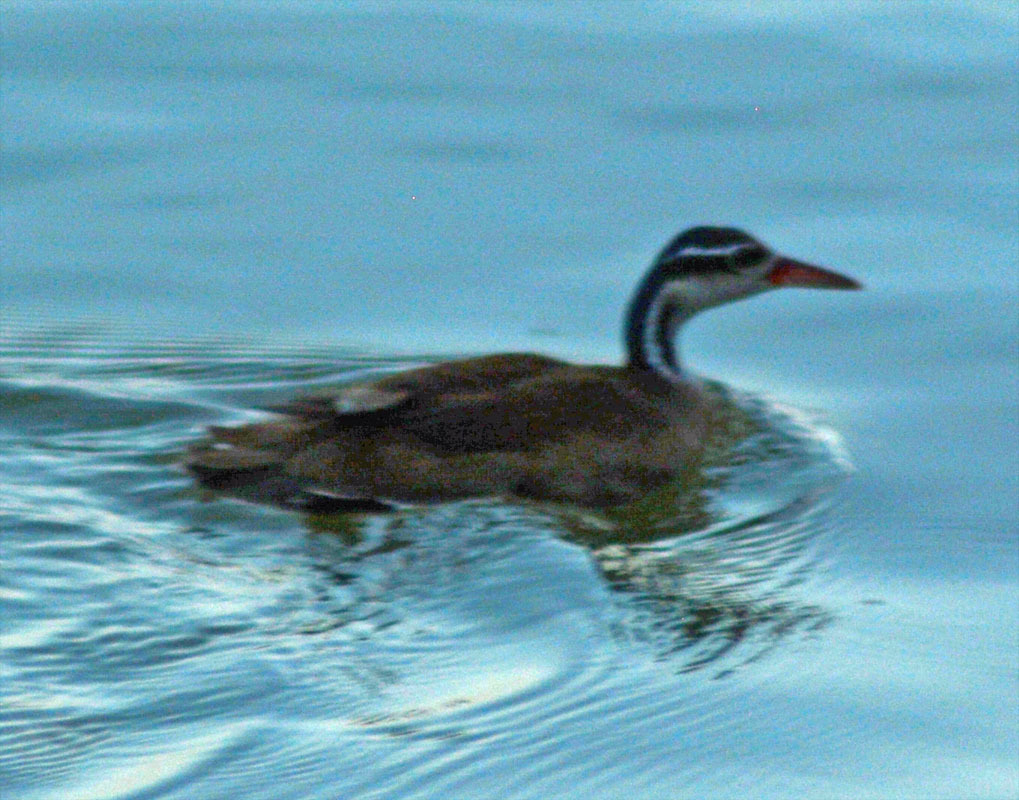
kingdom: Animalia
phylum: Chordata
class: Aves
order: Gruiformes
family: Heliornithidae
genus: Heliornis
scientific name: Heliornis fulica
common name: Sungrebe
